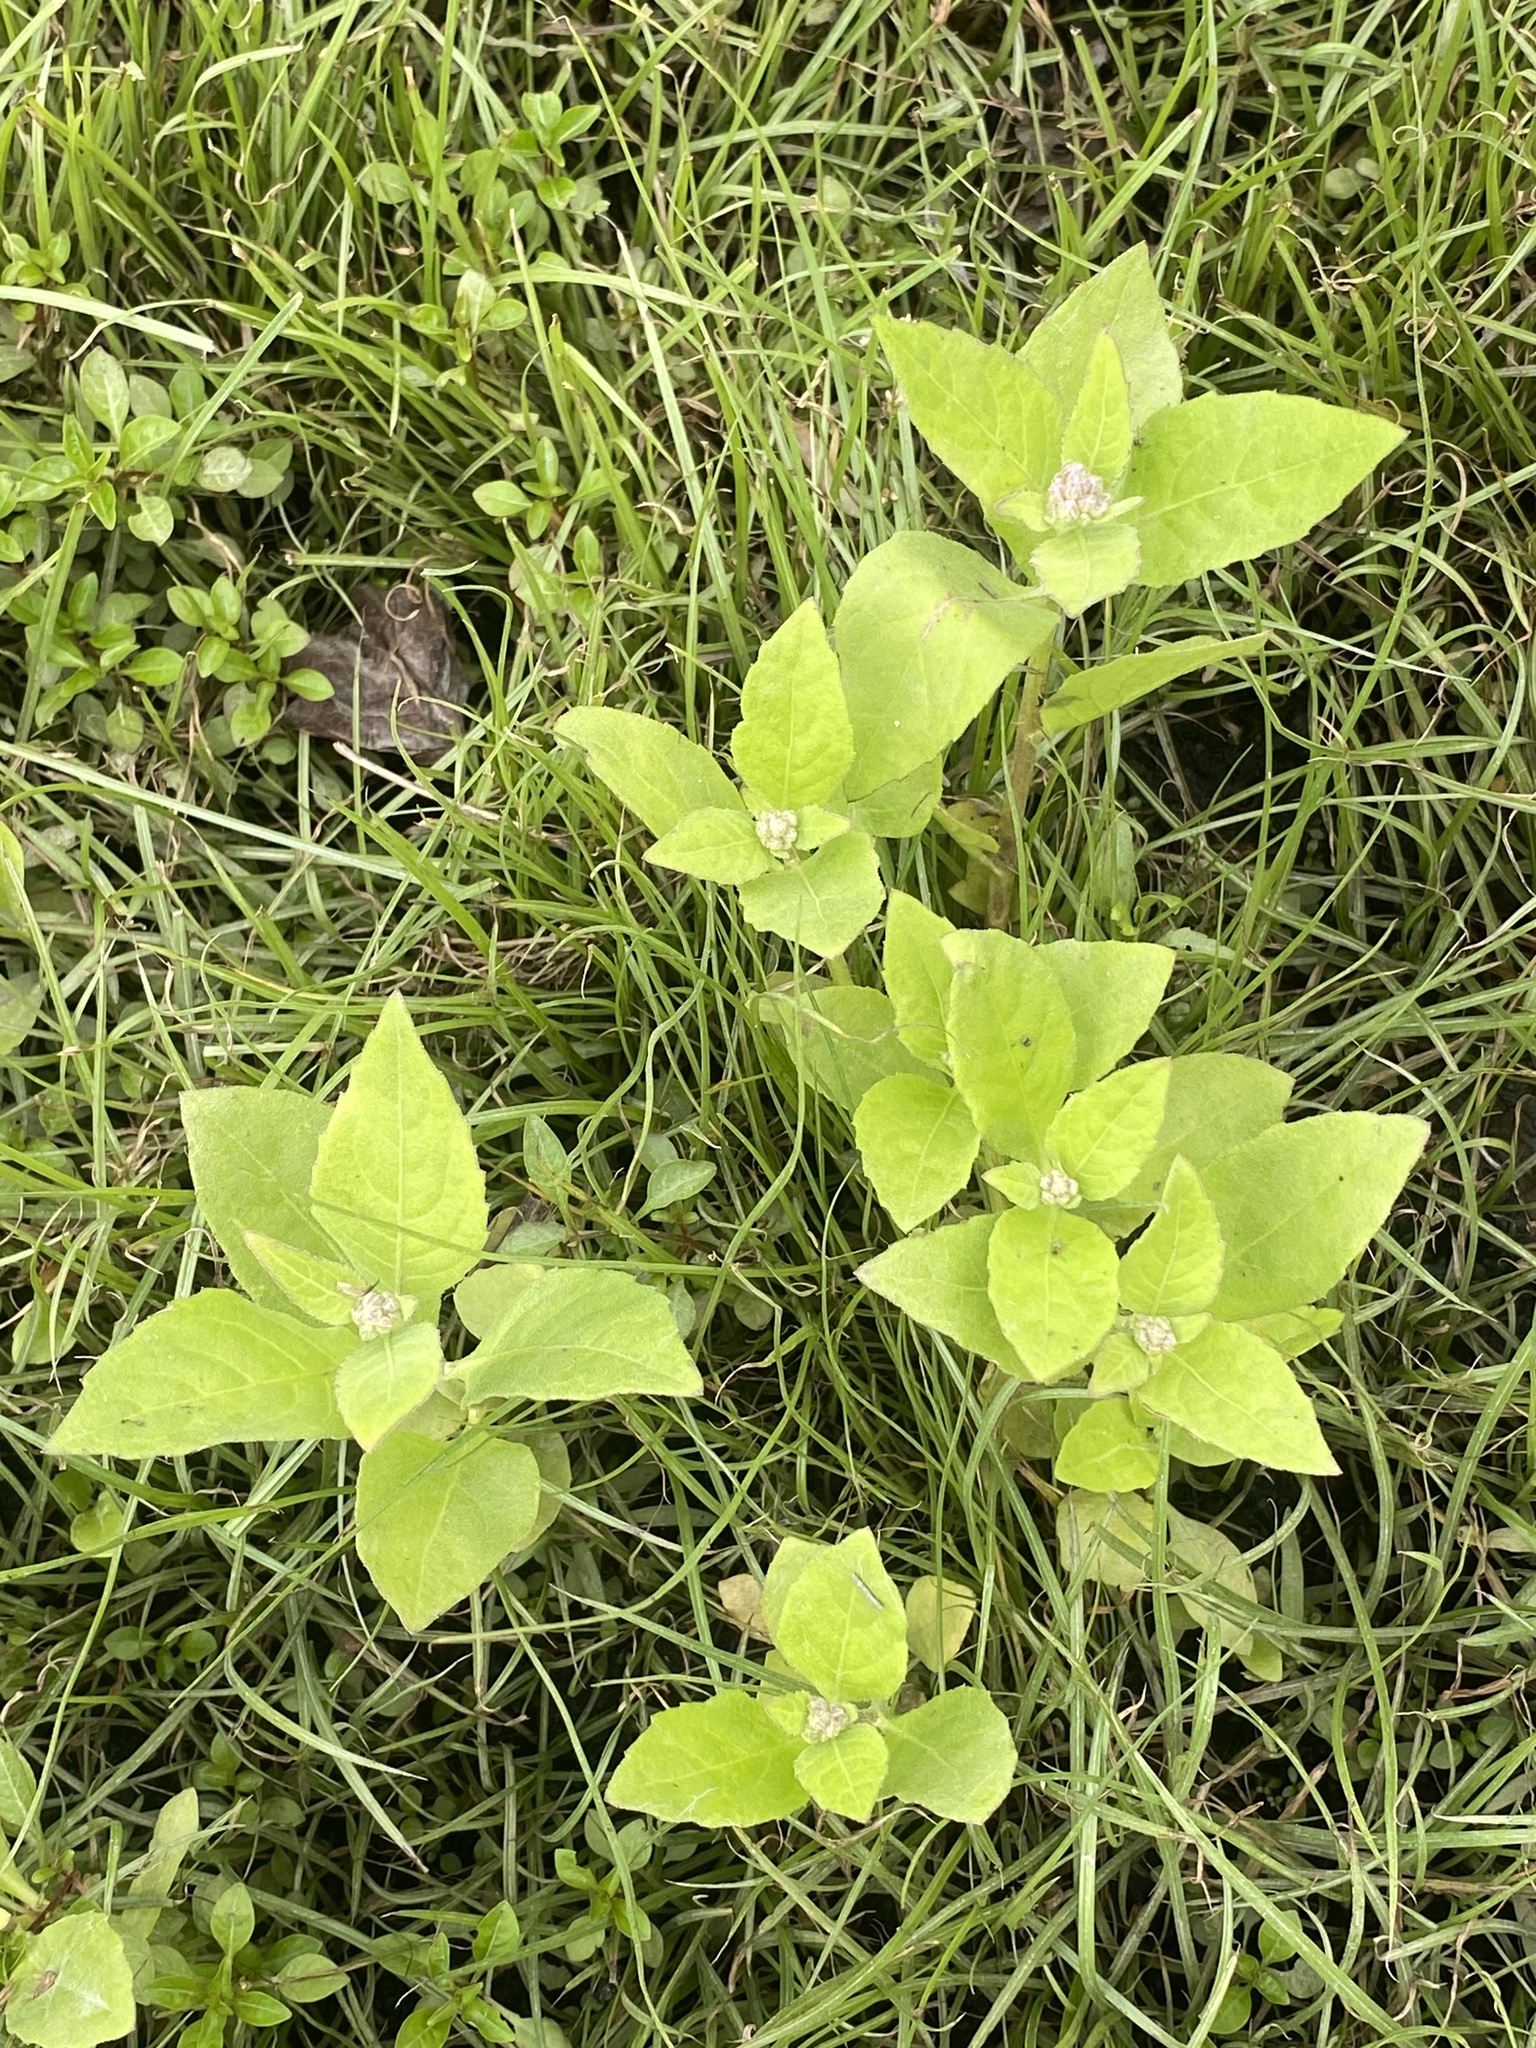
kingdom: Plantae
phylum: Tracheophyta
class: Magnoliopsida
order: Asterales
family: Asteraceae
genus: Pluchea
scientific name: Pluchea odorata
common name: Saltmarsh fleabane
